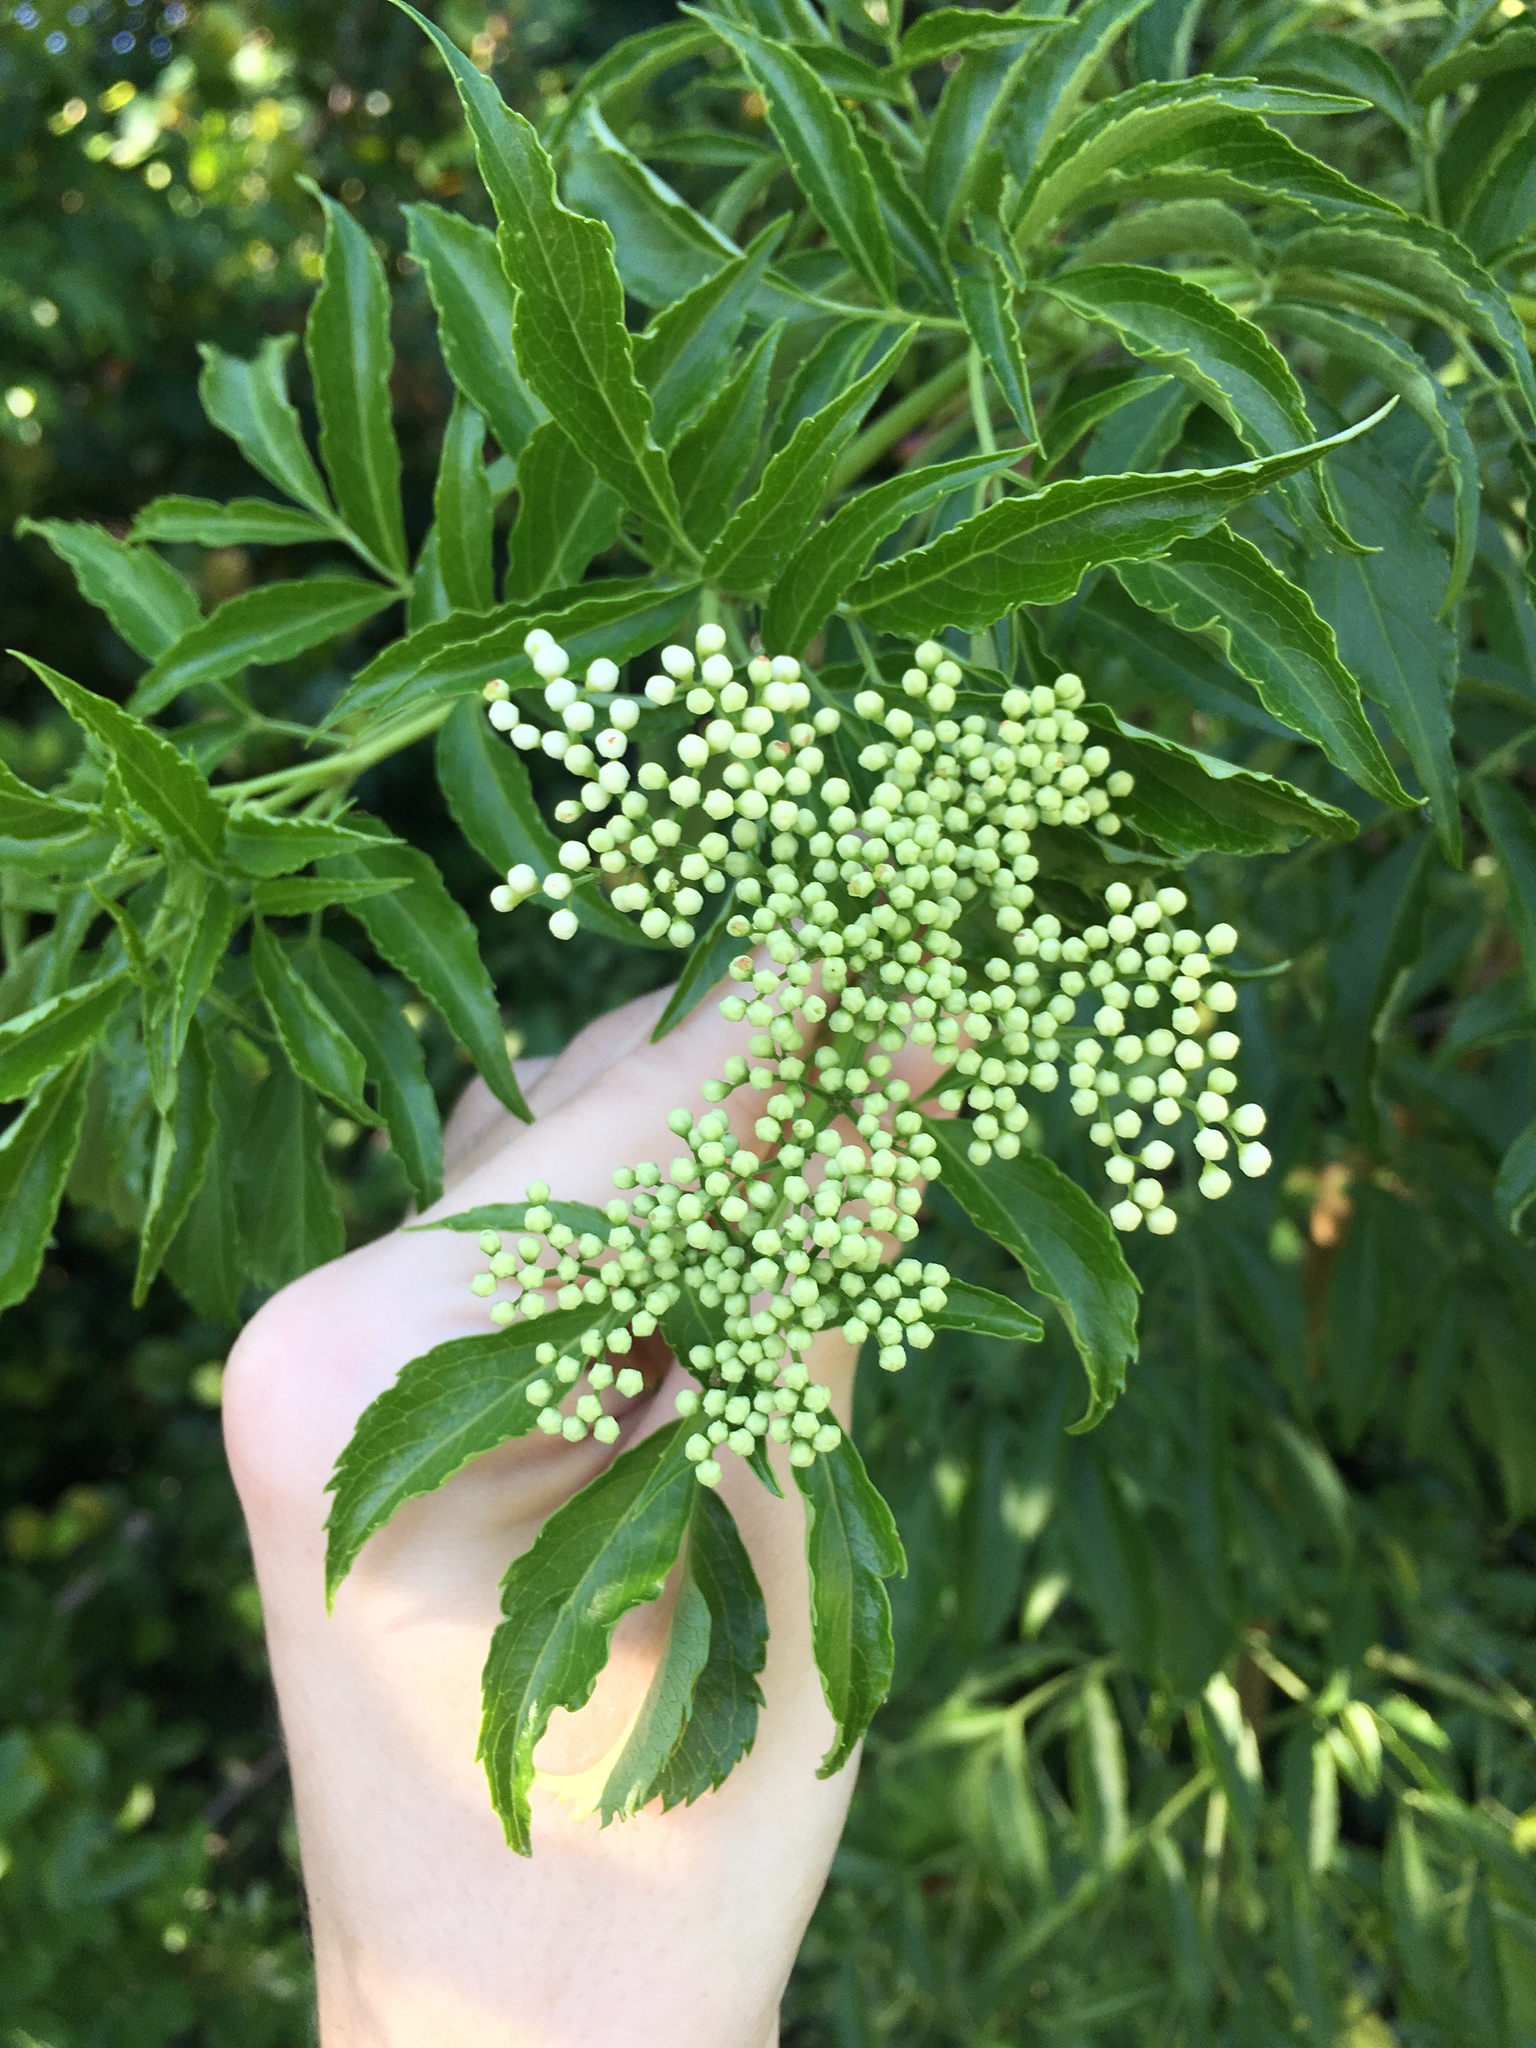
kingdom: Plantae
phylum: Tracheophyta
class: Magnoliopsida
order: Dipsacales
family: Viburnaceae
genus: Sambucus
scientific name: Sambucus canadensis
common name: American elder
